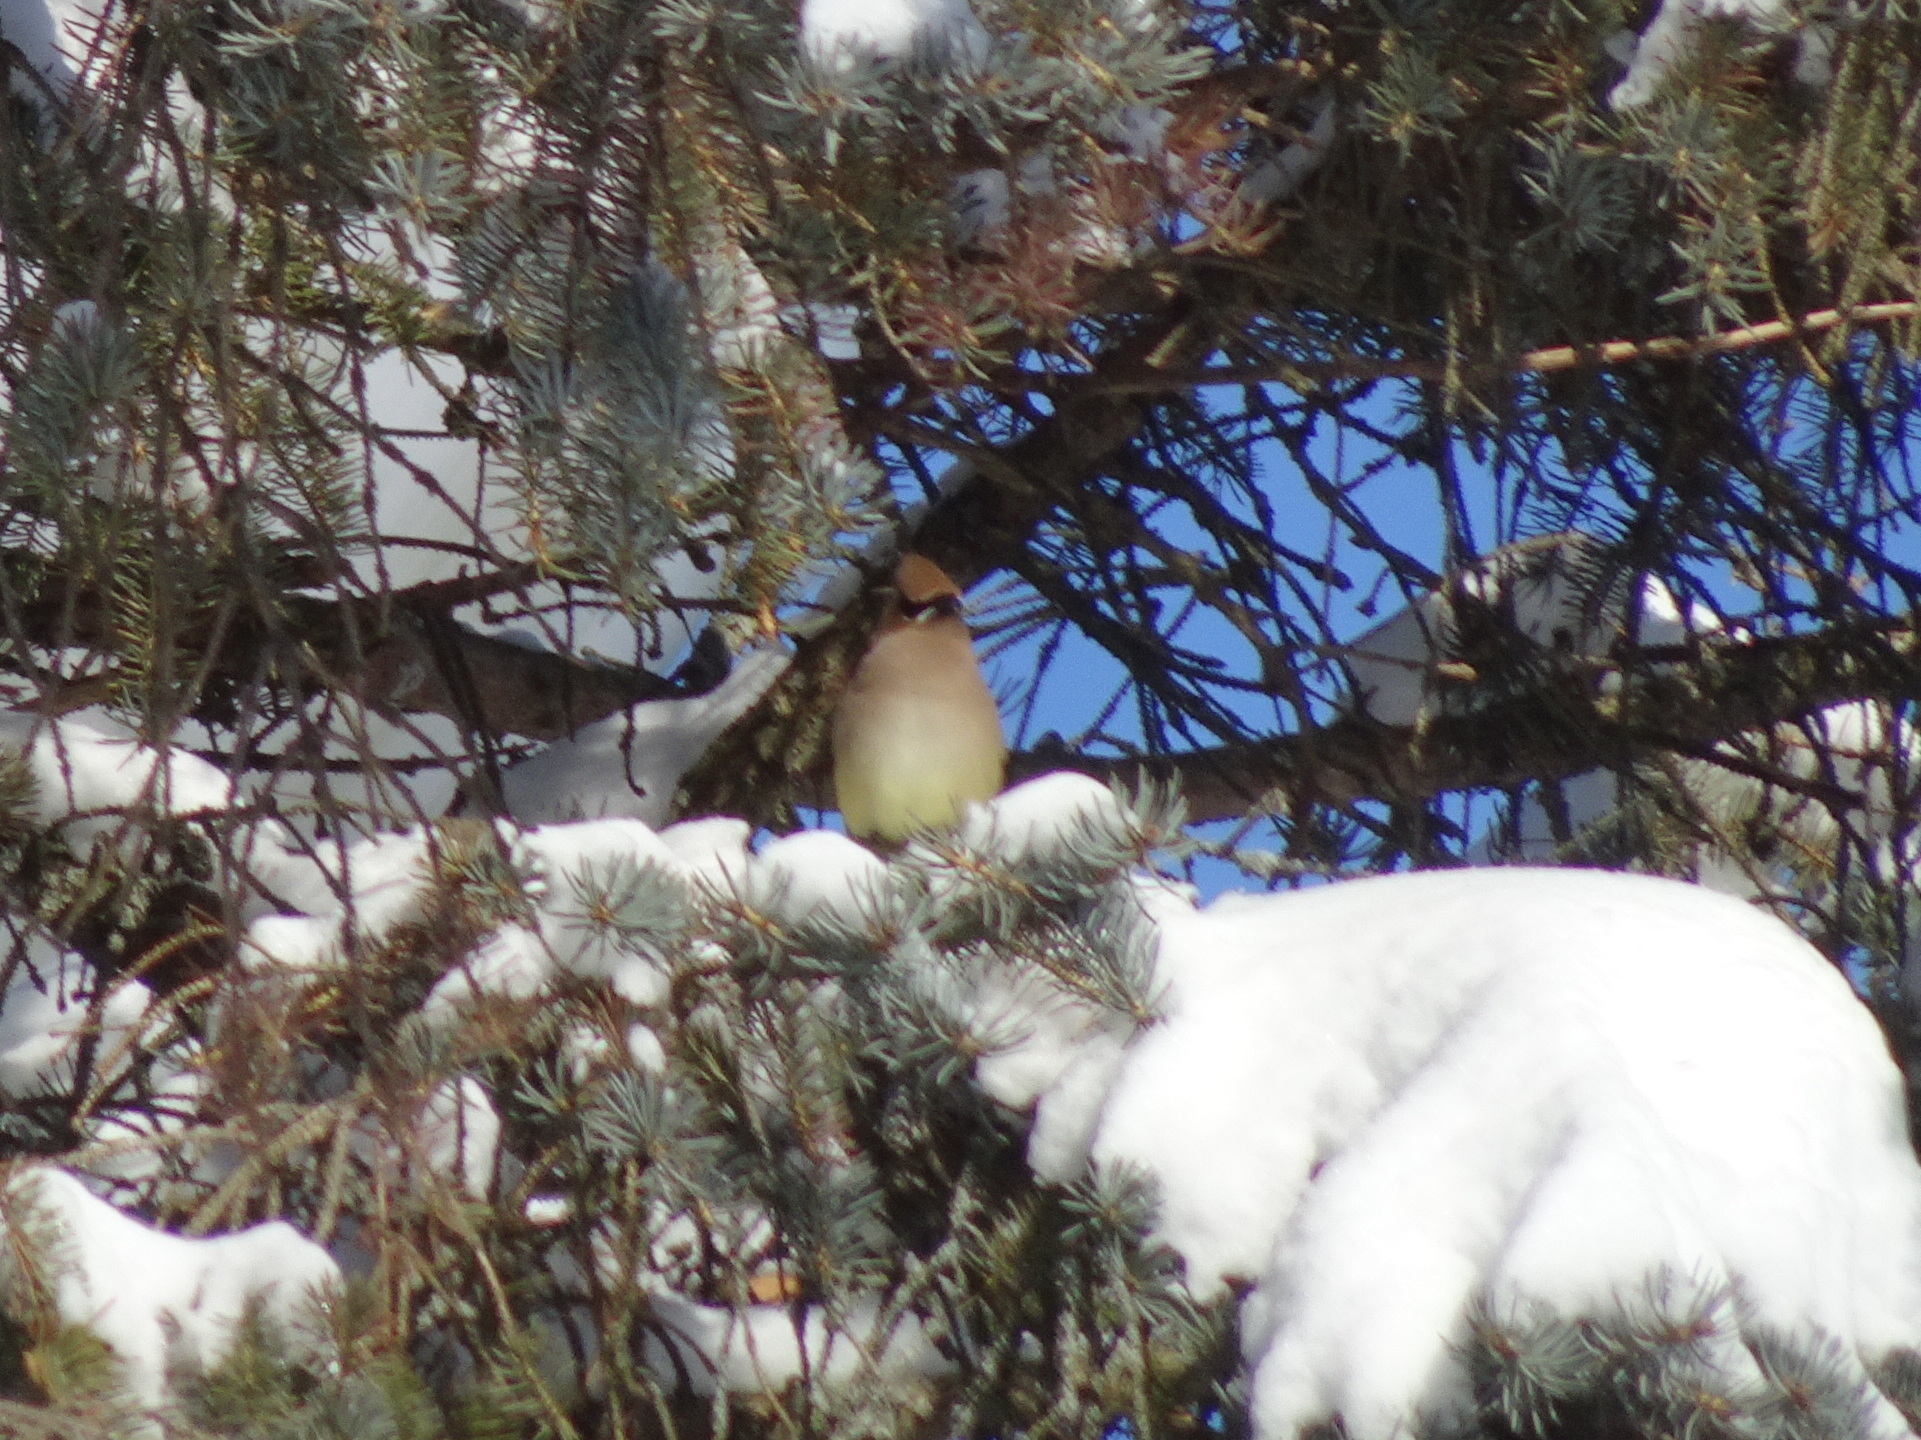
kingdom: Animalia
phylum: Chordata
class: Aves
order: Passeriformes
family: Bombycillidae
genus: Bombycilla
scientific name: Bombycilla cedrorum
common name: Cedar waxwing
